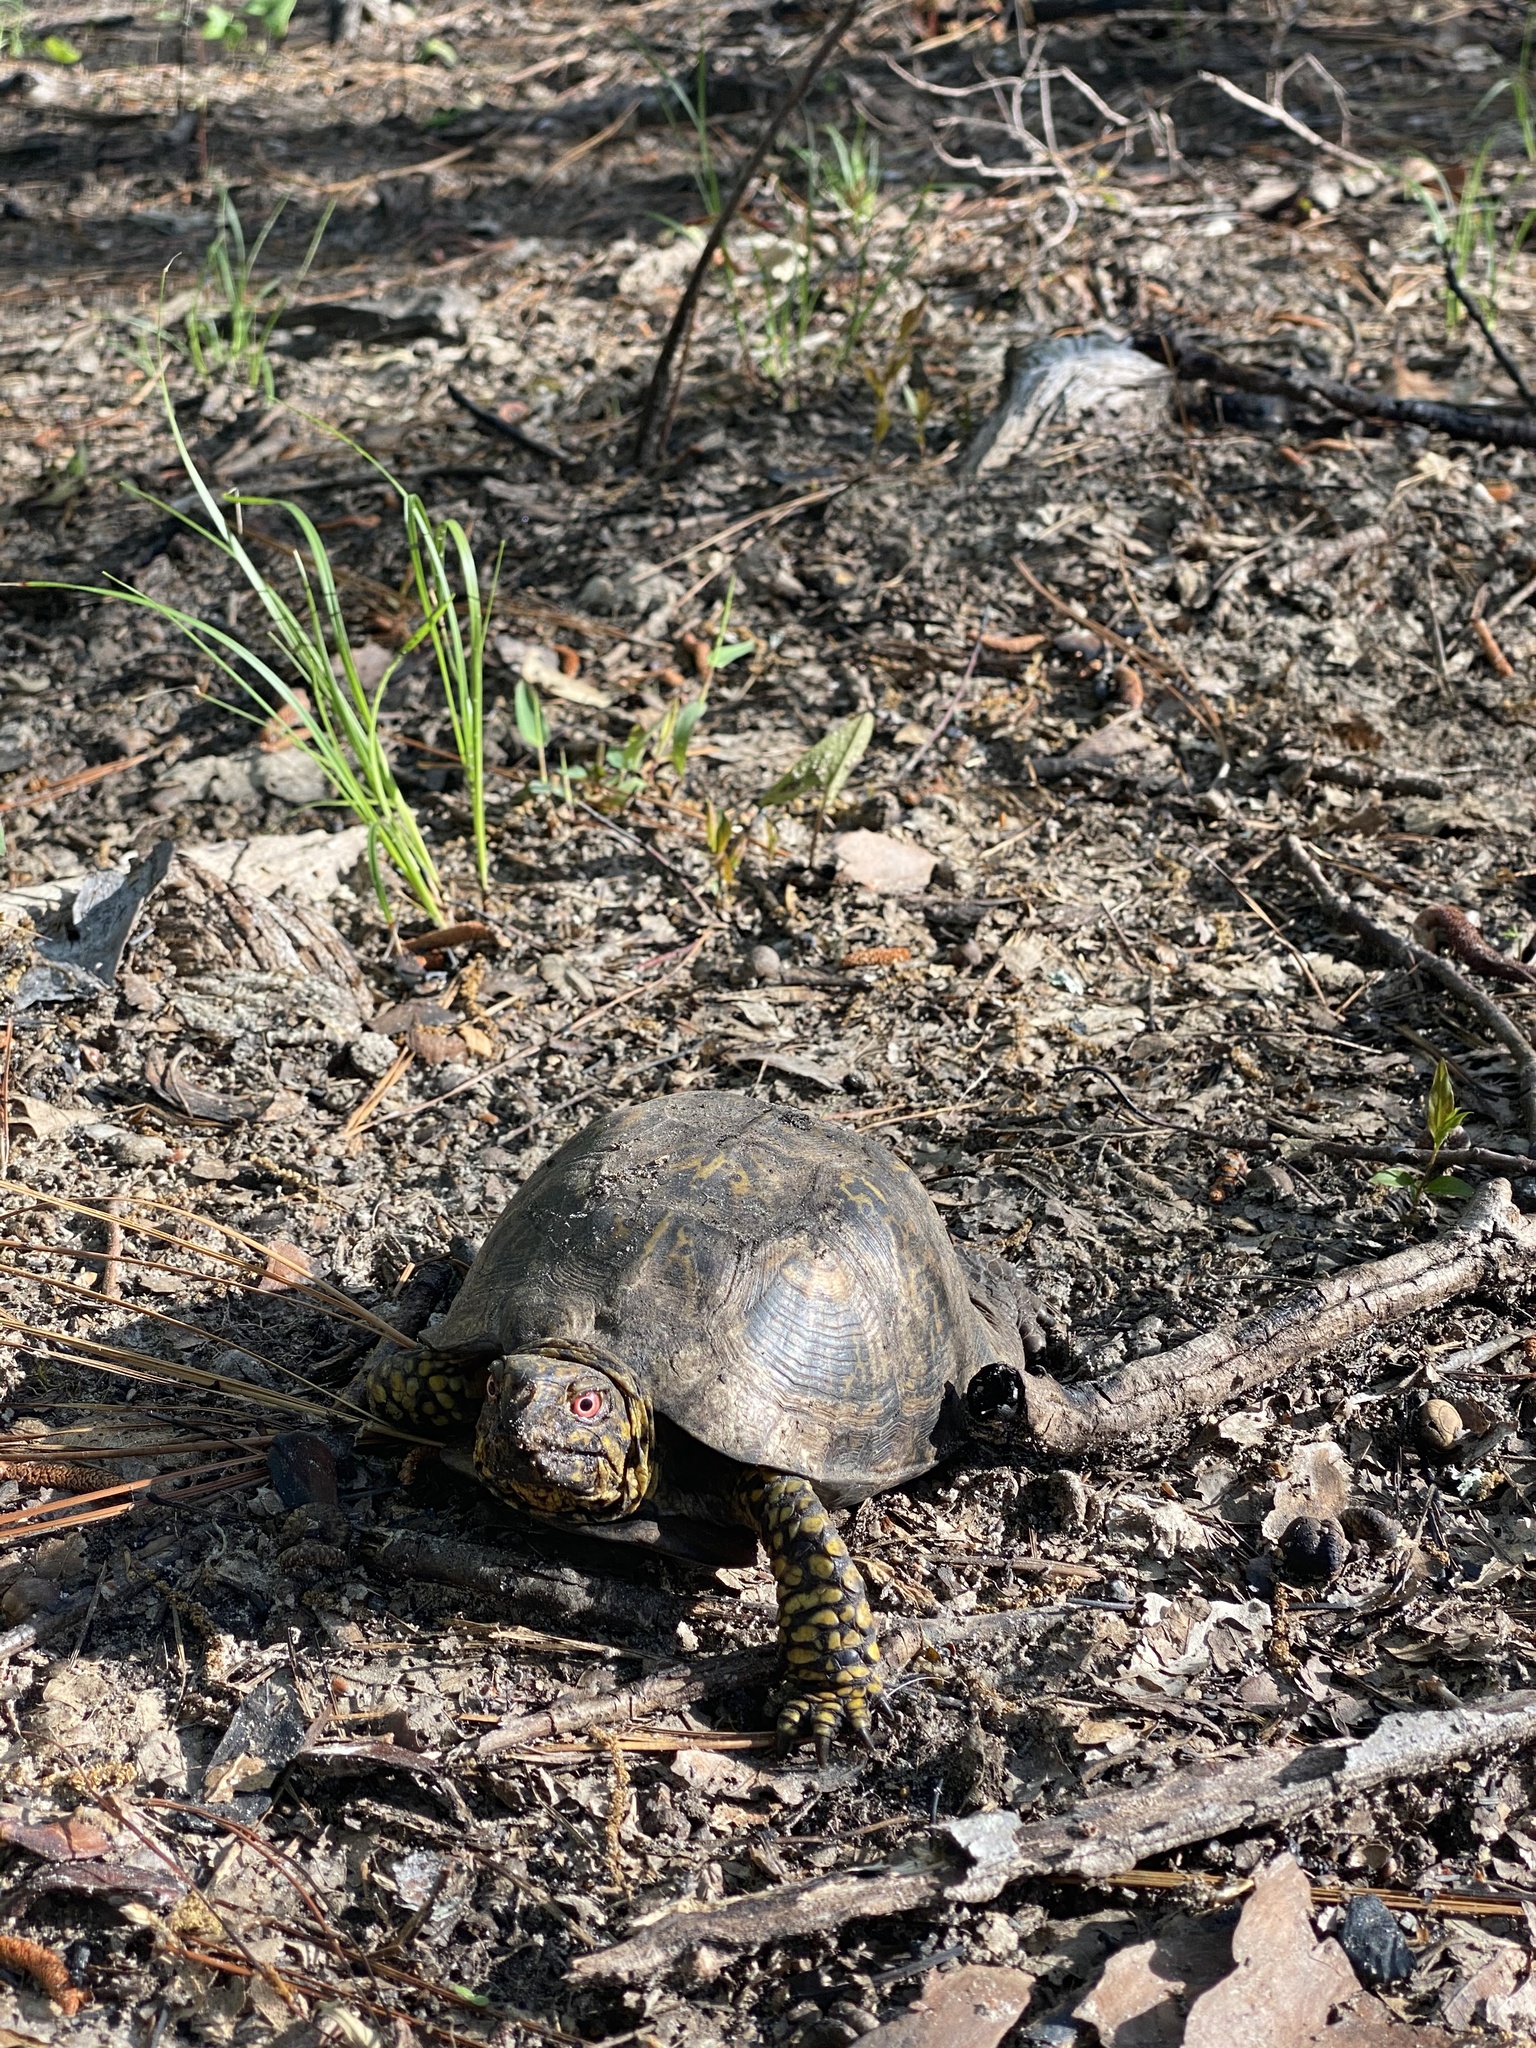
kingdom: Animalia
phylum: Chordata
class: Testudines
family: Emydidae
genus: Terrapene
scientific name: Terrapene carolina
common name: Common box turtle
